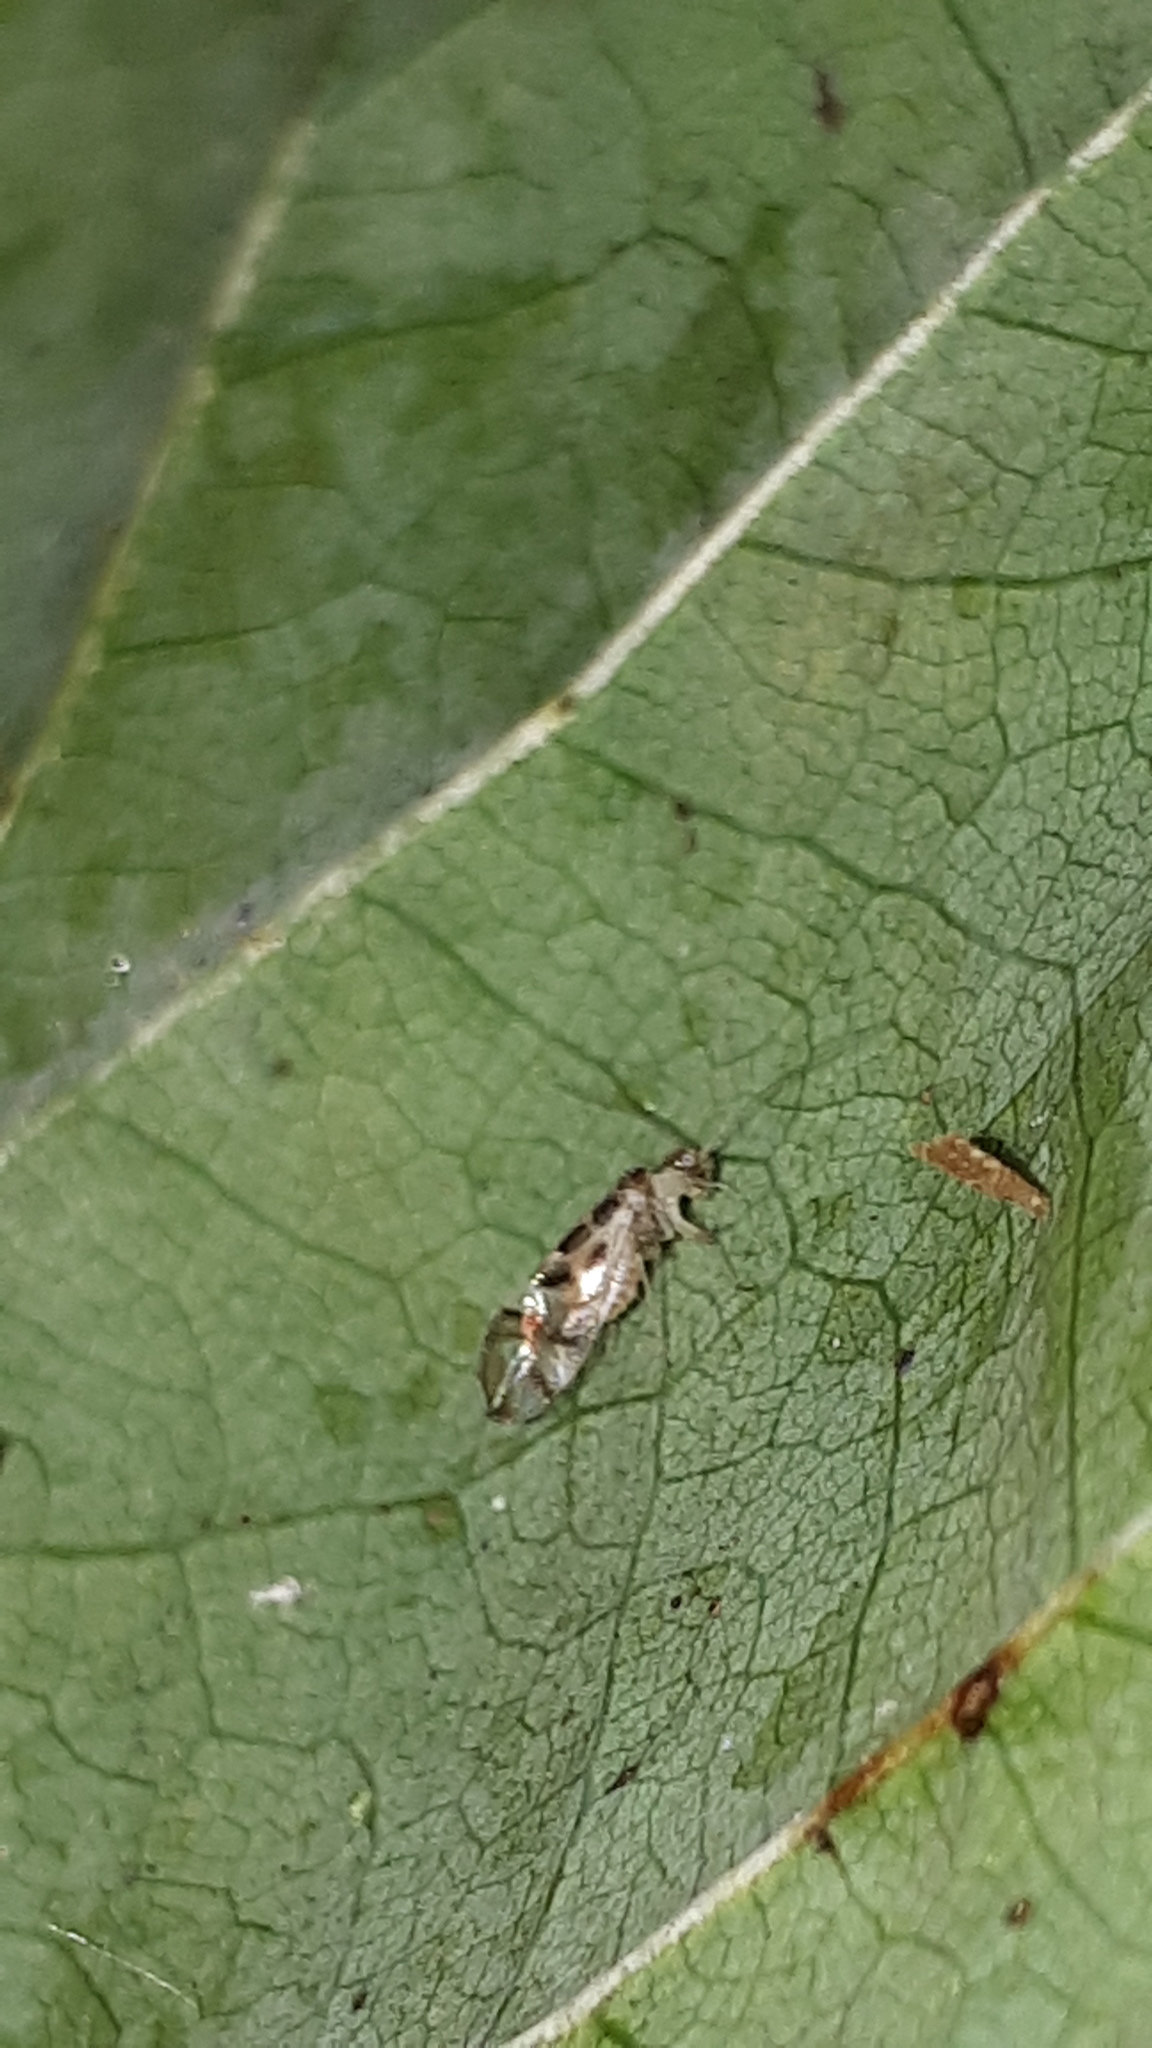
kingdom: Animalia
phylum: Arthropoda
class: Insecta
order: Psocodea
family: Stenopsocidae
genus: Graphopsocus
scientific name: Graphopsocus cruciatus
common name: Lizard bark louse
